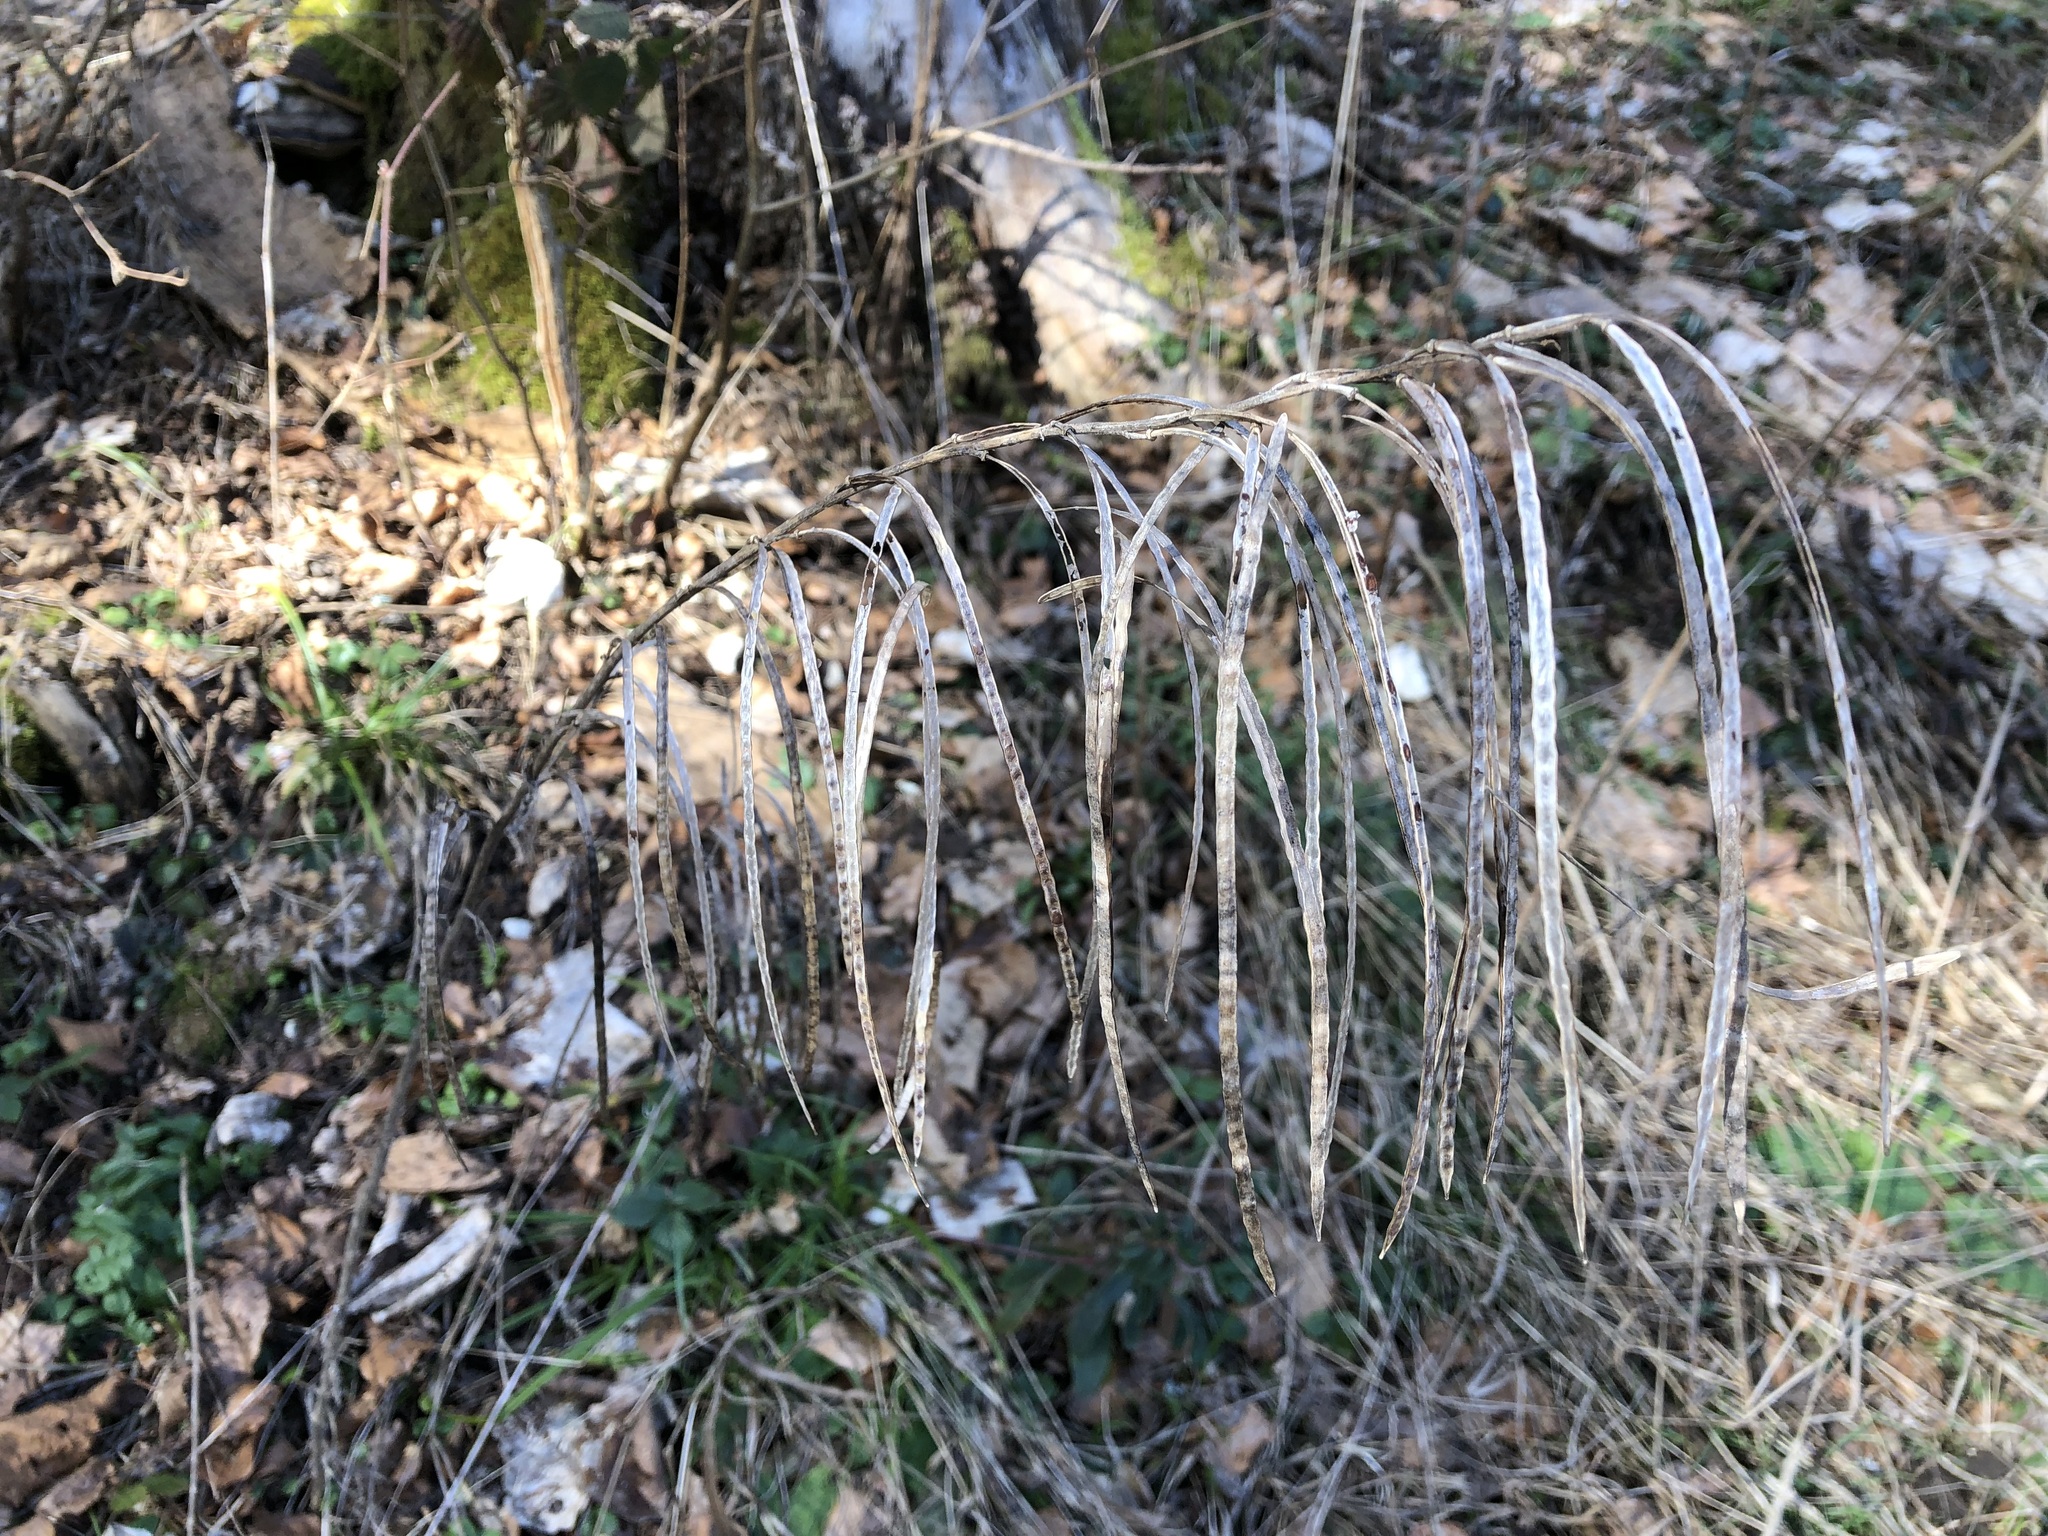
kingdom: Plantae
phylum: Tracheophyta
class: Magnoliopsida
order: Brassicales
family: Brassicaceae
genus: Pseudoturritis
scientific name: Pseudoturritis turrita
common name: Tower cress
